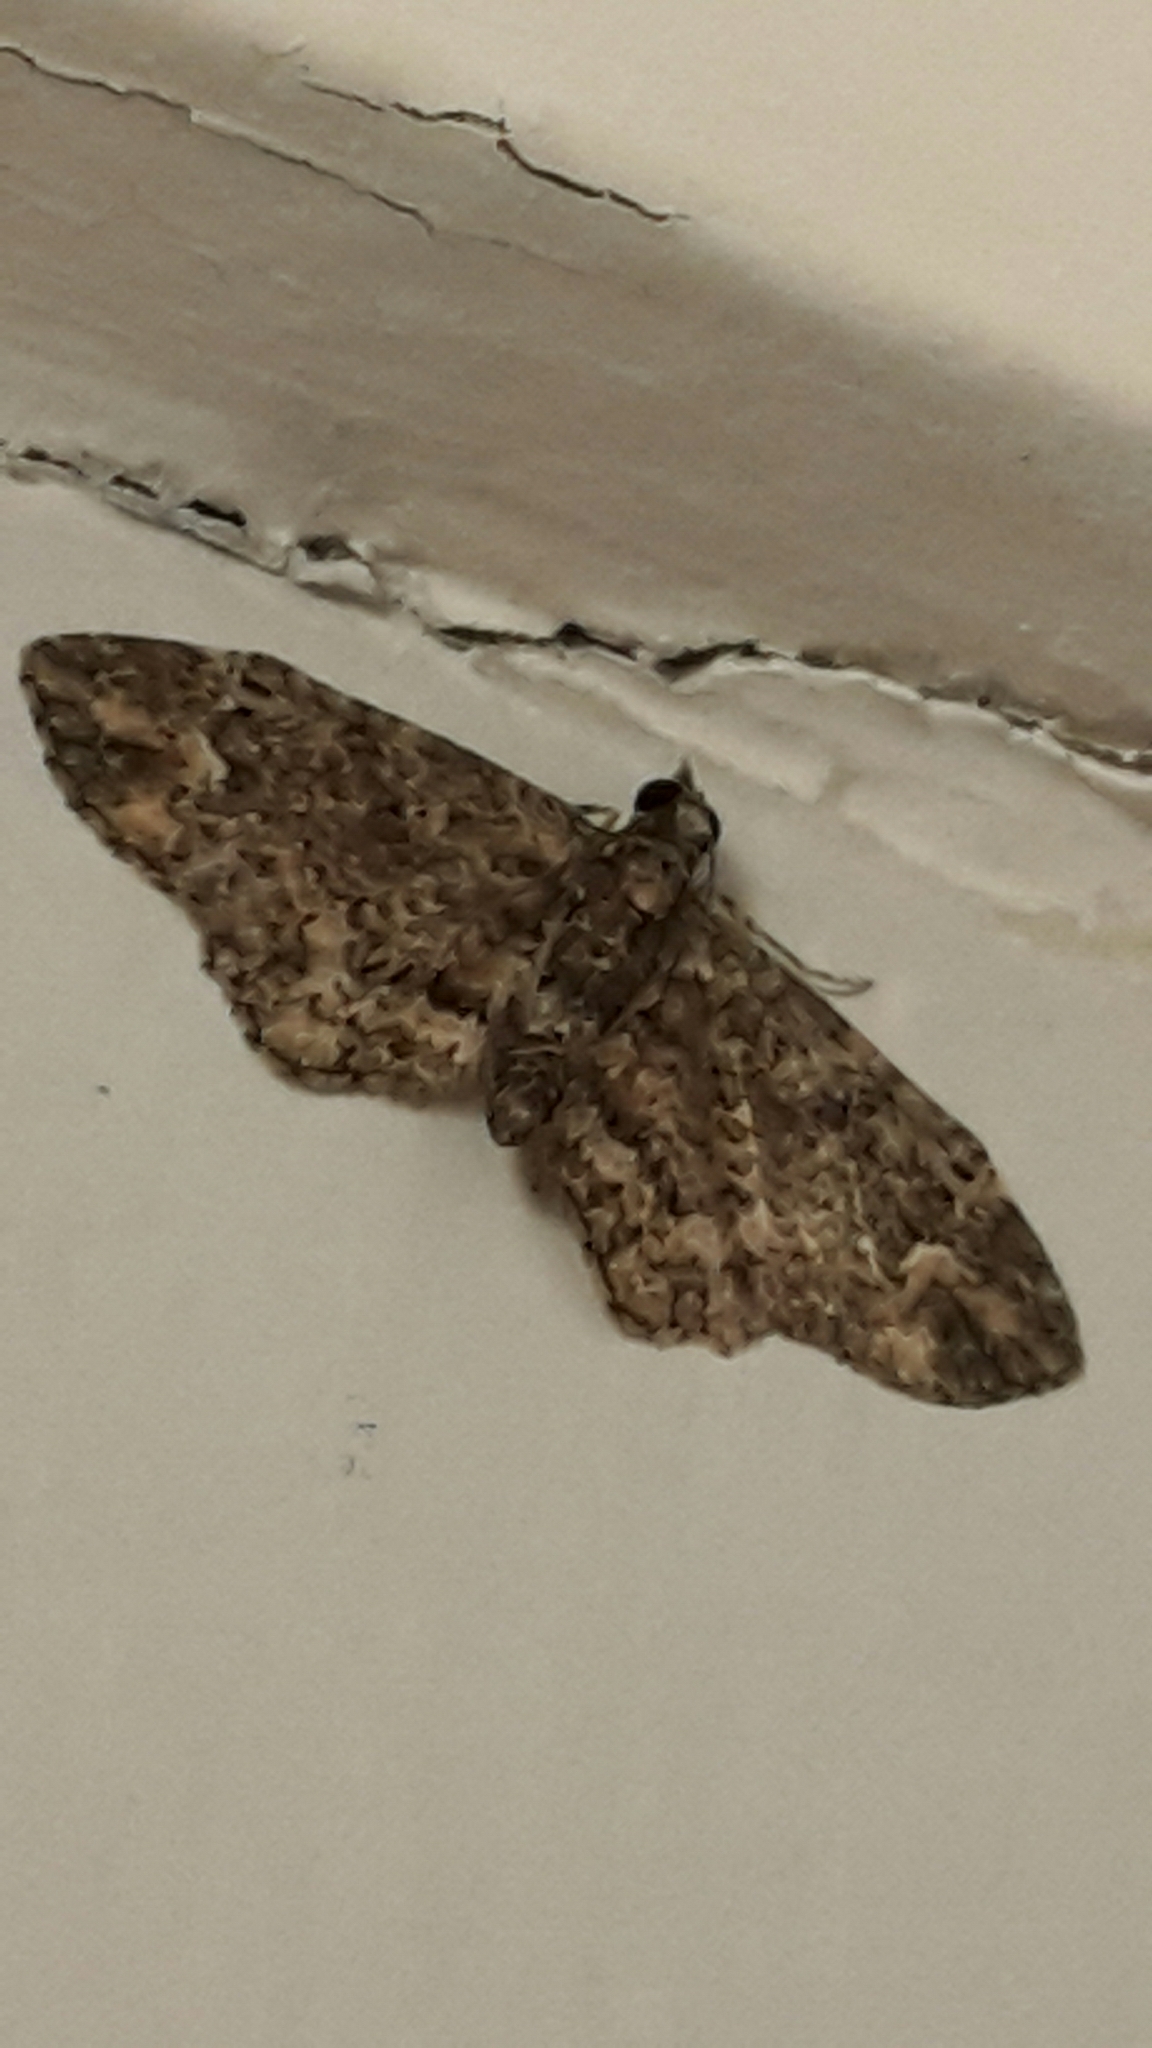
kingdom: Animalia
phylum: Arthropoda
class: Insecta
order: Lepidoptera
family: Geometridae
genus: Pasiphilodes
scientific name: Pasiphilodes testulata
